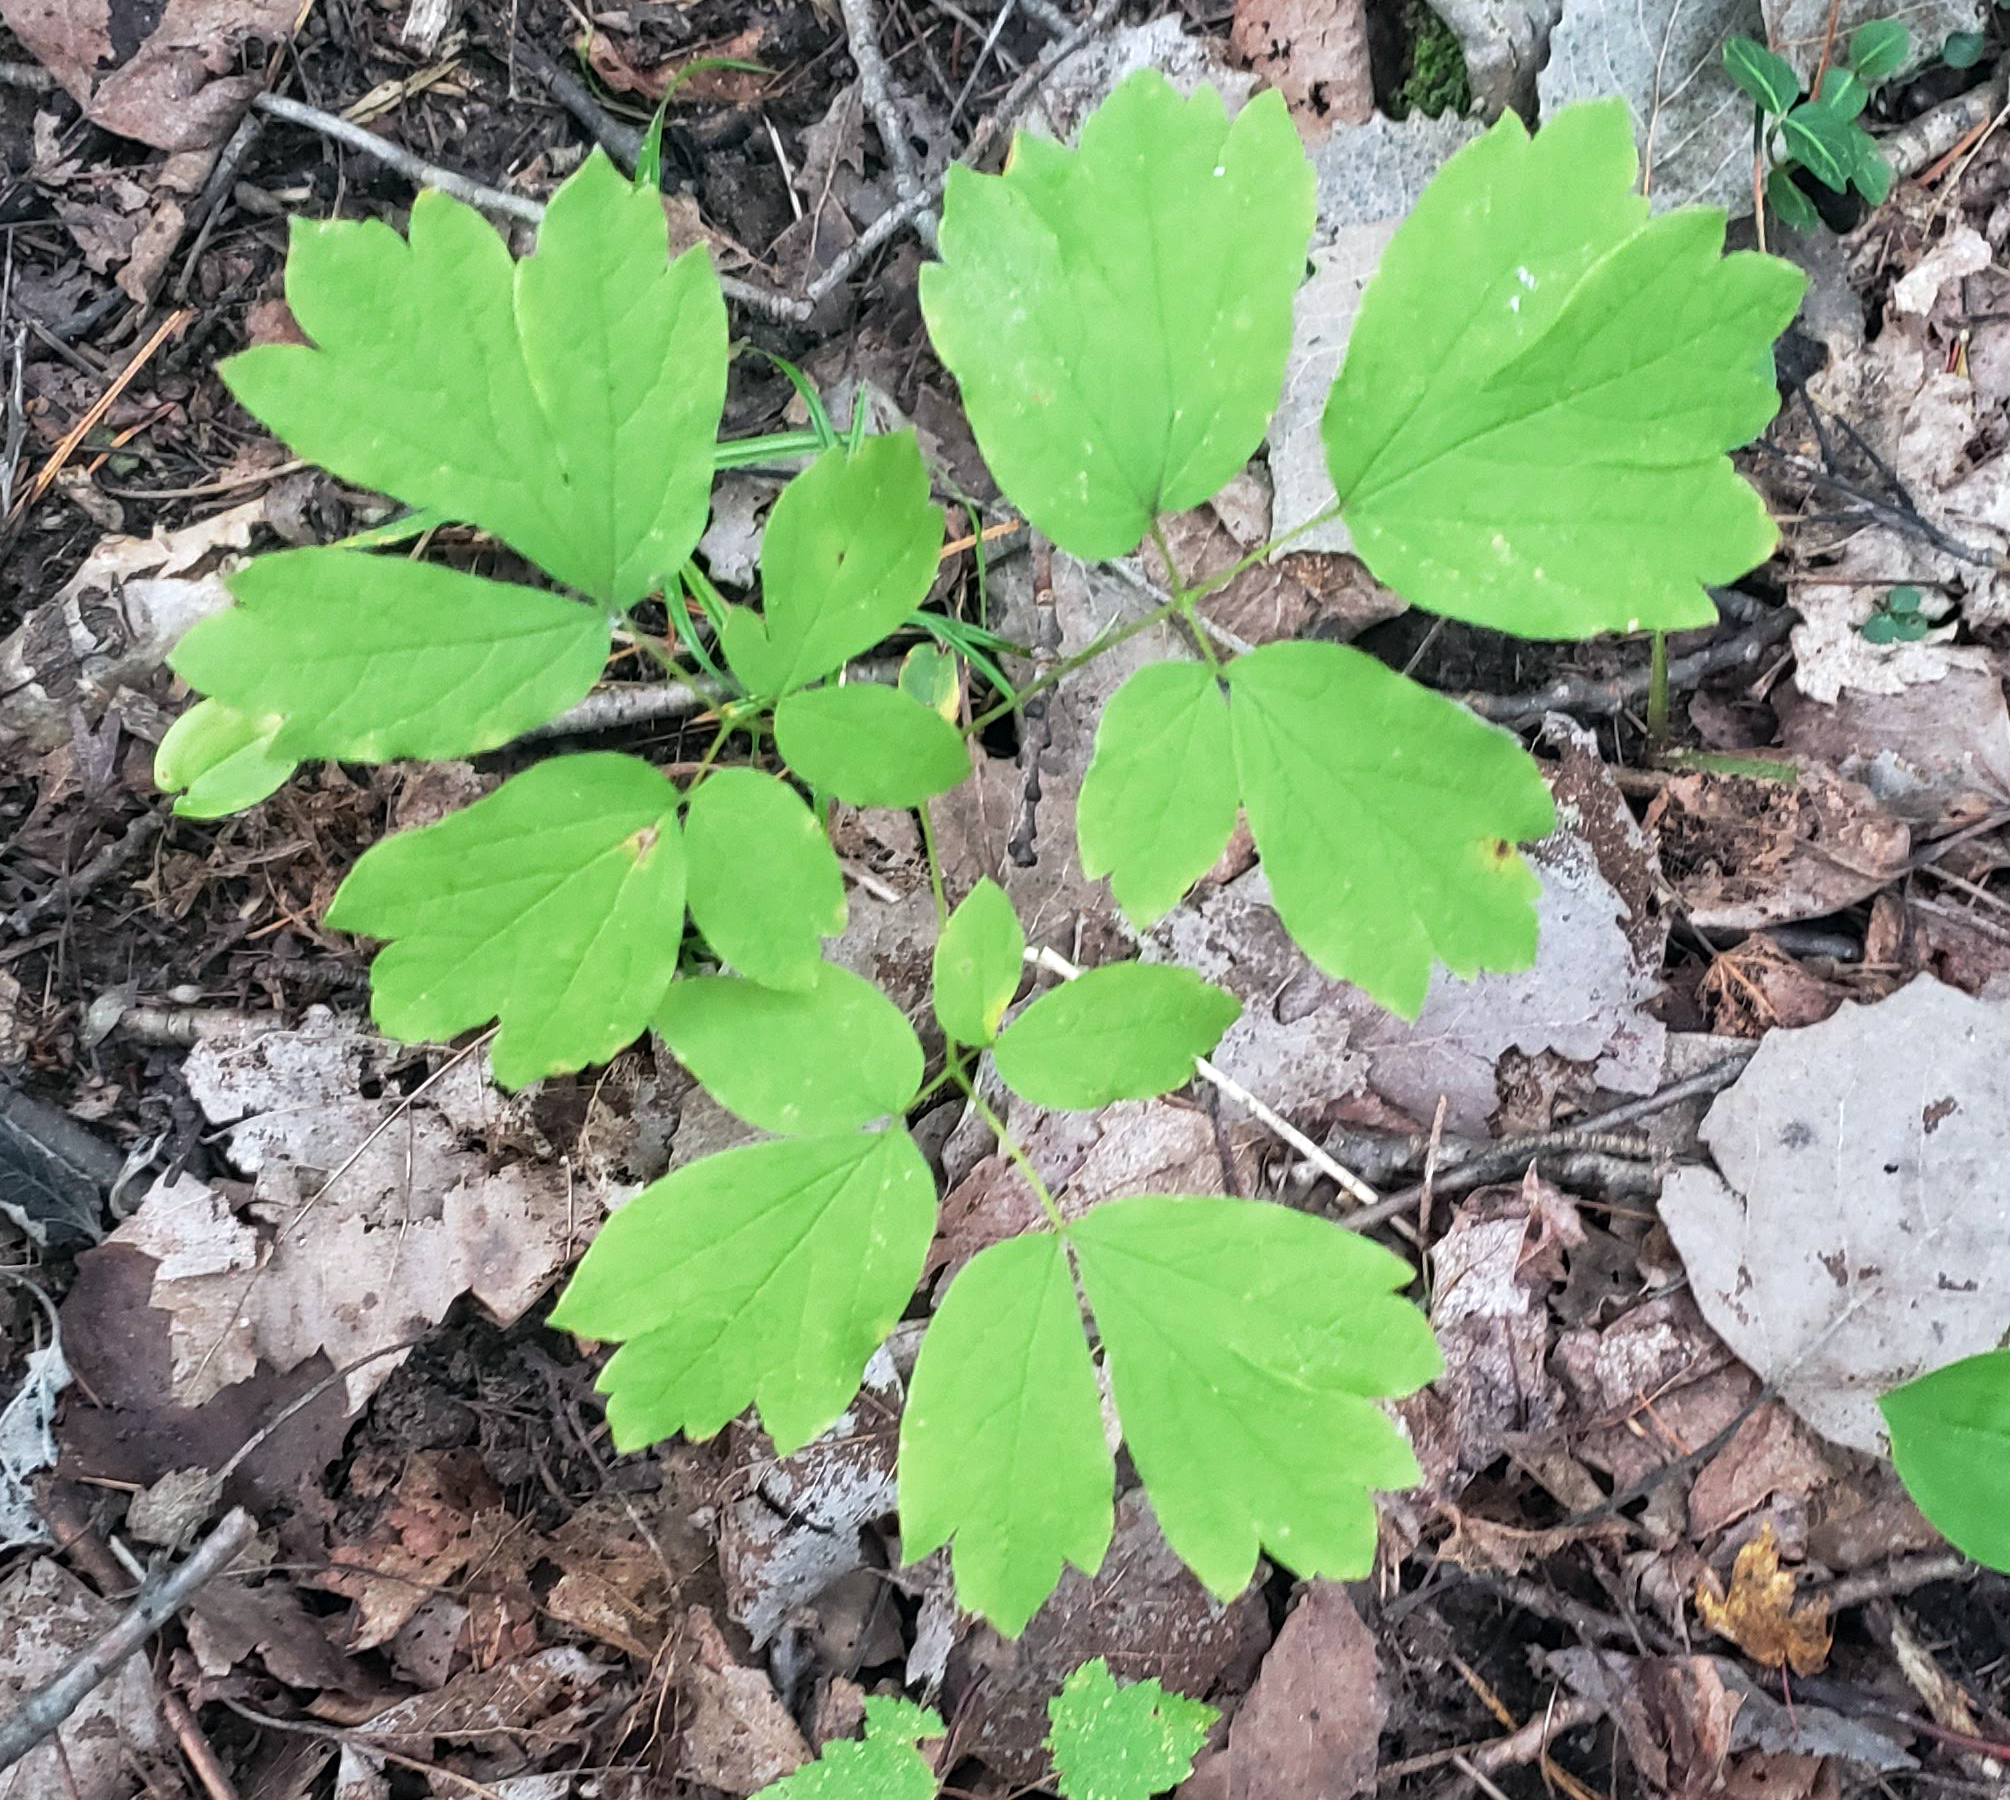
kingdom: Plantae
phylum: Tracheophyta
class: Magnoliopsida
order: Ranunculales
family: Berberidaceae
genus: Caulophyllum
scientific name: Caulophyllum thalictroides
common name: Blue cohosh
